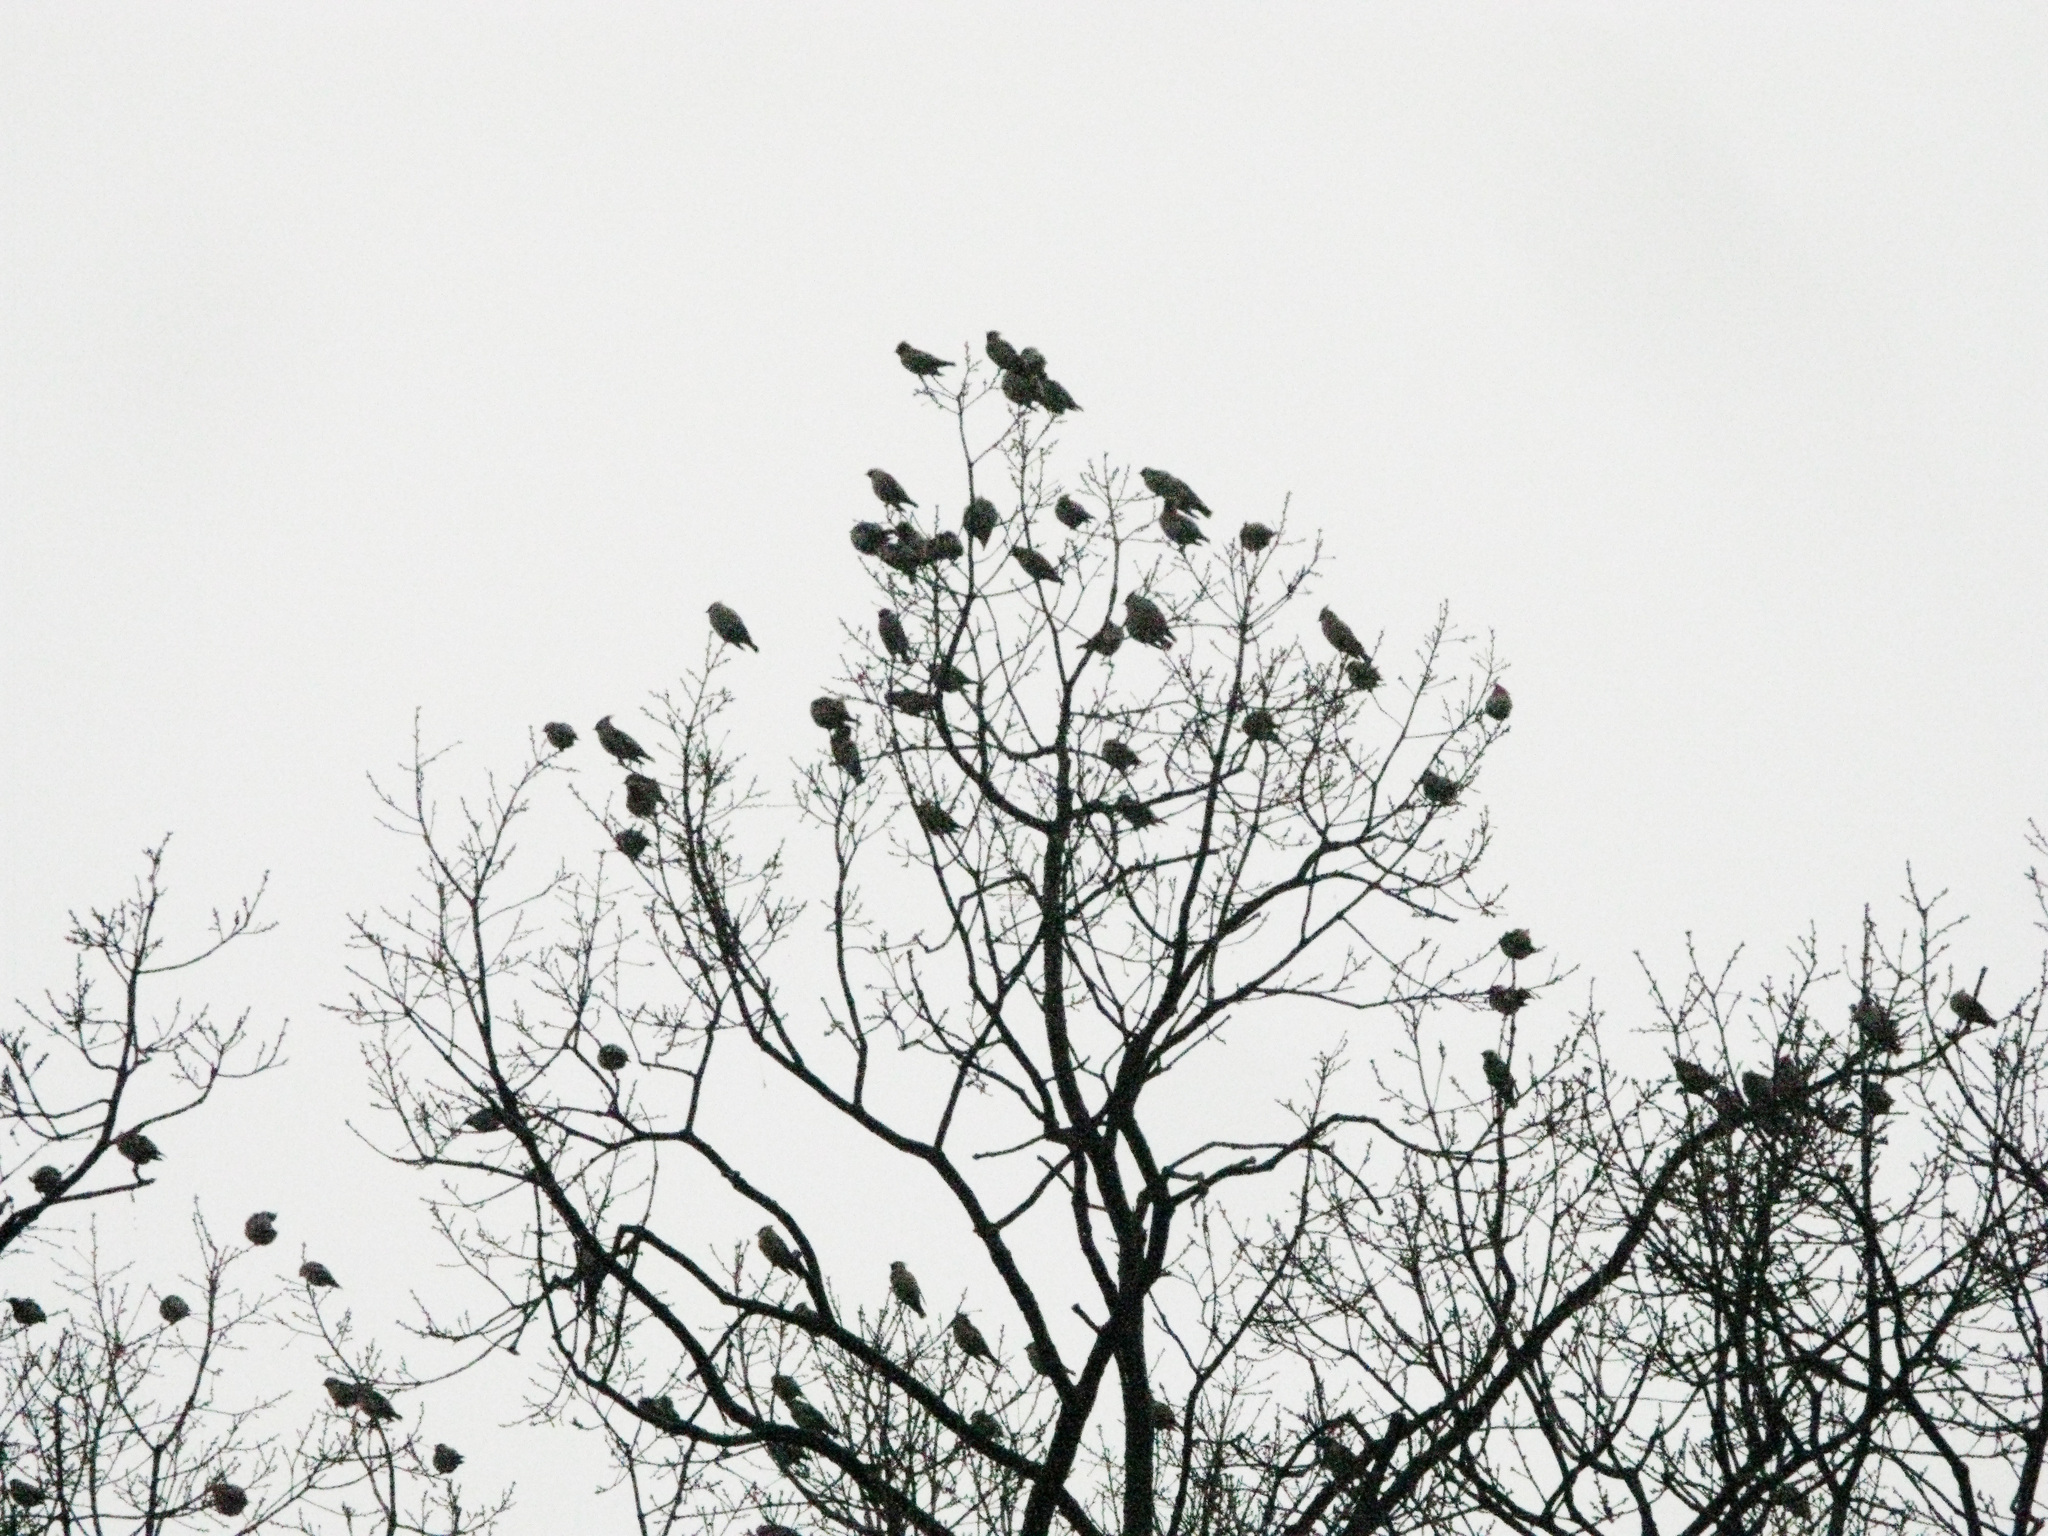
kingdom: Animalia
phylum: Chordata
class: Aves
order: Passeriformes
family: Bombycillidae
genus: Bombycilla
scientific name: Bombycilla garrulus
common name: Bohemian waxwing
